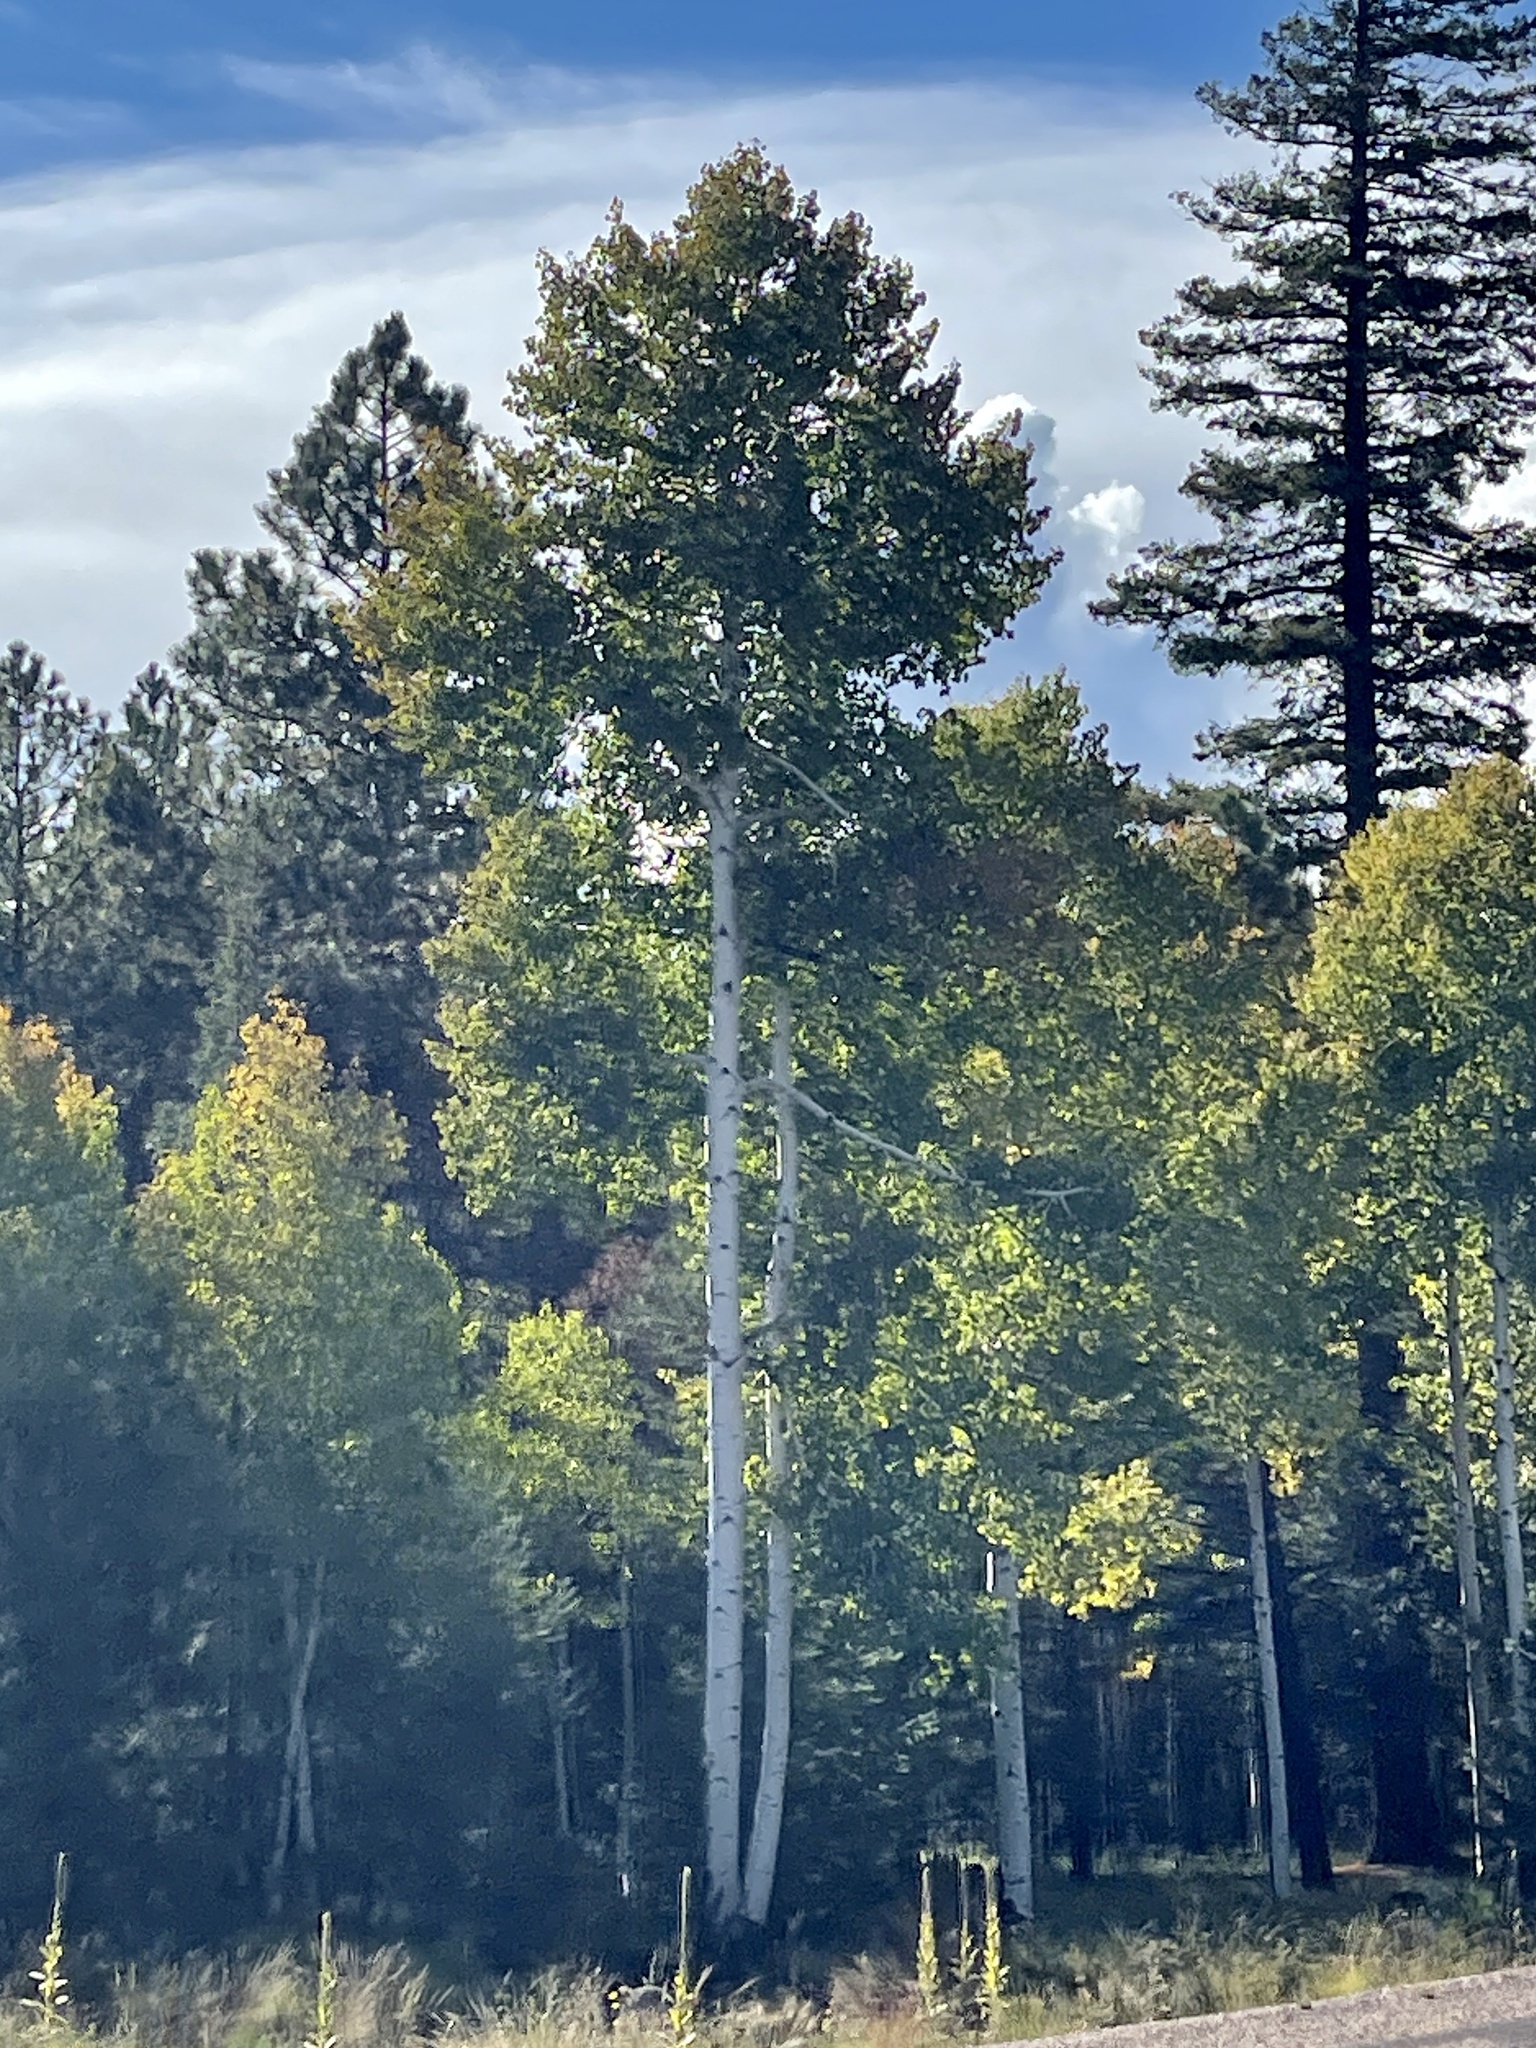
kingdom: Plantae
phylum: Tracheophyta
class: Magnoliopsida
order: Malpighiales
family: Salicaceae
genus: Populus
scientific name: Populus tremuloides
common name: Quaking aspen
